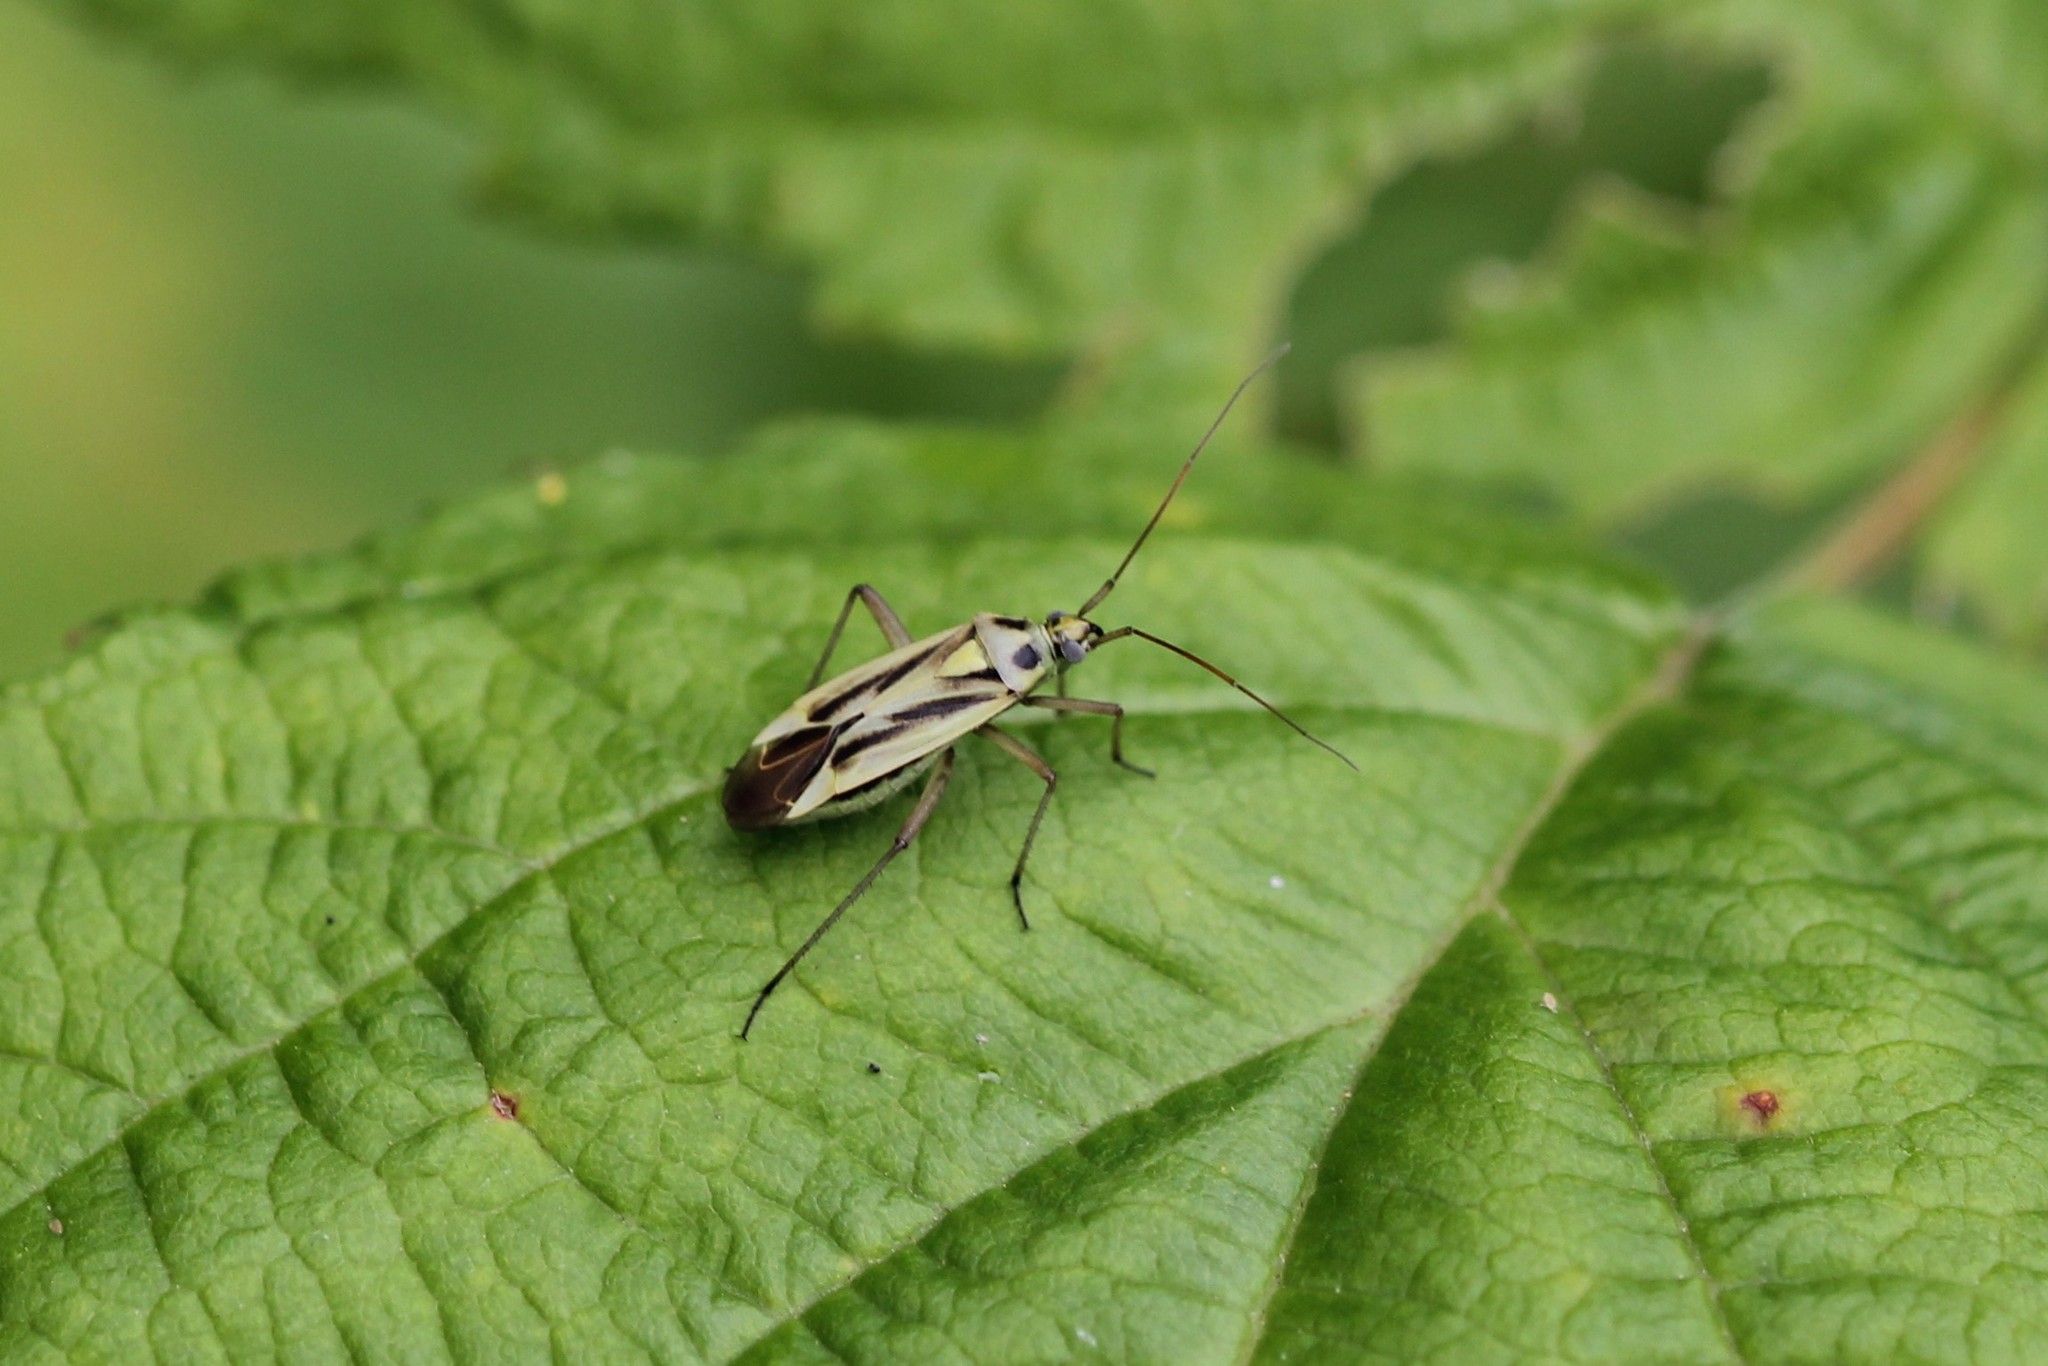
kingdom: Animalia
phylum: Arthropoda
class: Insecta
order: Hemiptera
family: Miridae
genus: Stenotus
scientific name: Stenotus binotatus
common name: Plant bug
